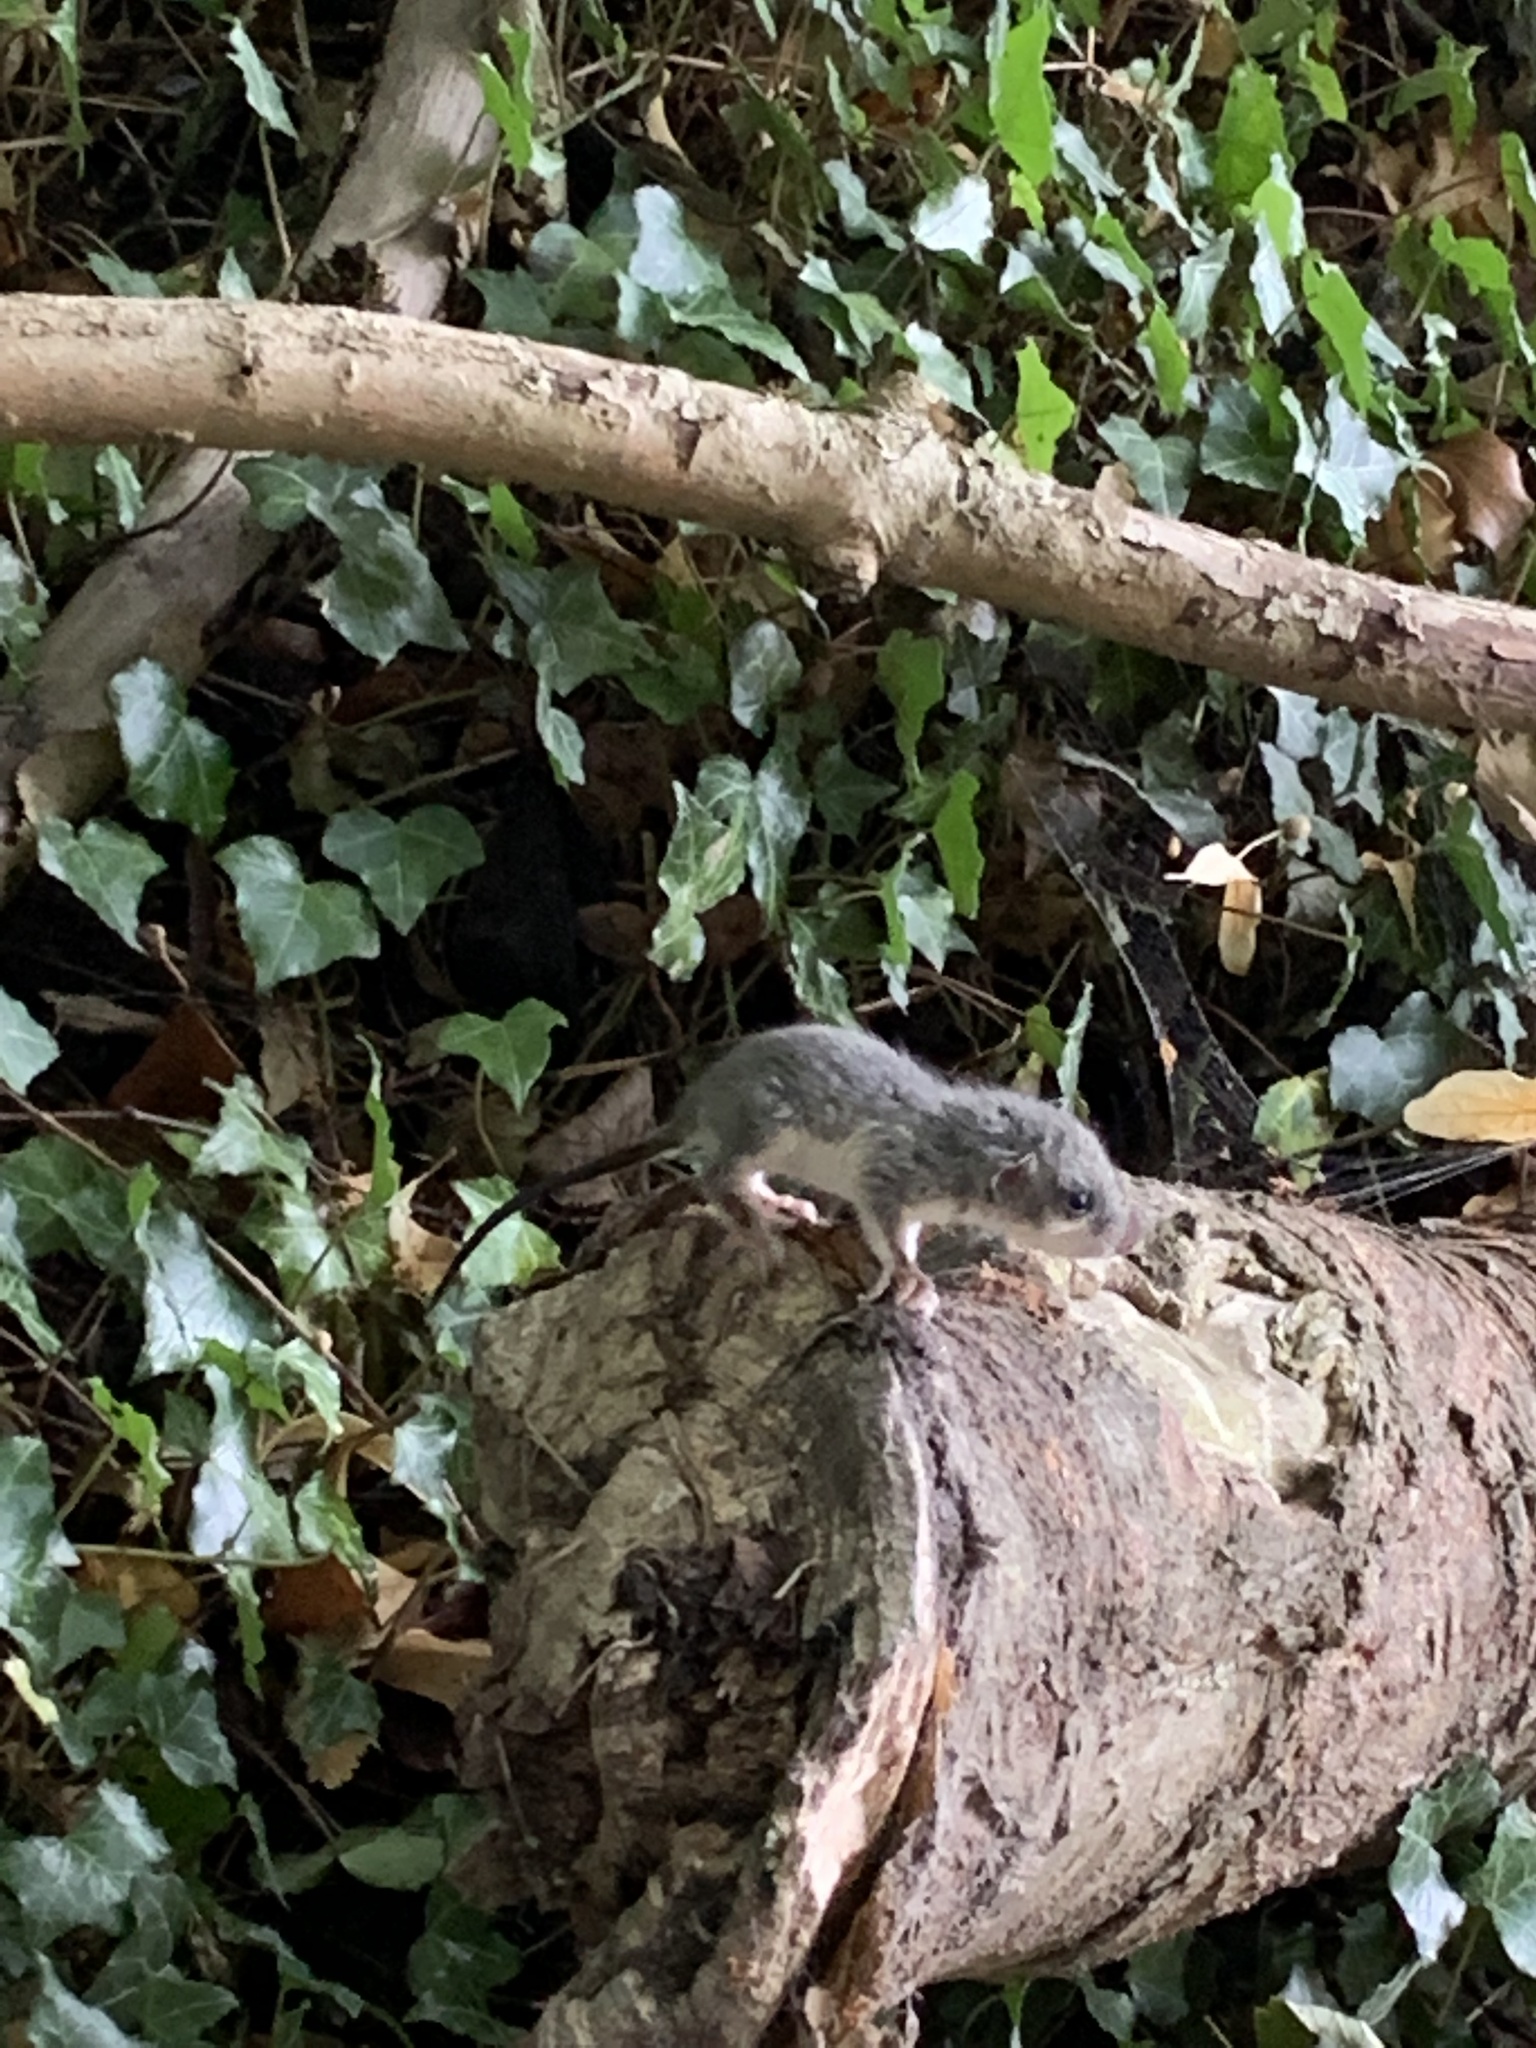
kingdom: Animalia
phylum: Chordata
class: Mammalia
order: Rodentia
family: Gliridae
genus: Glis
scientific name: Glis glis
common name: Fat dormouse
